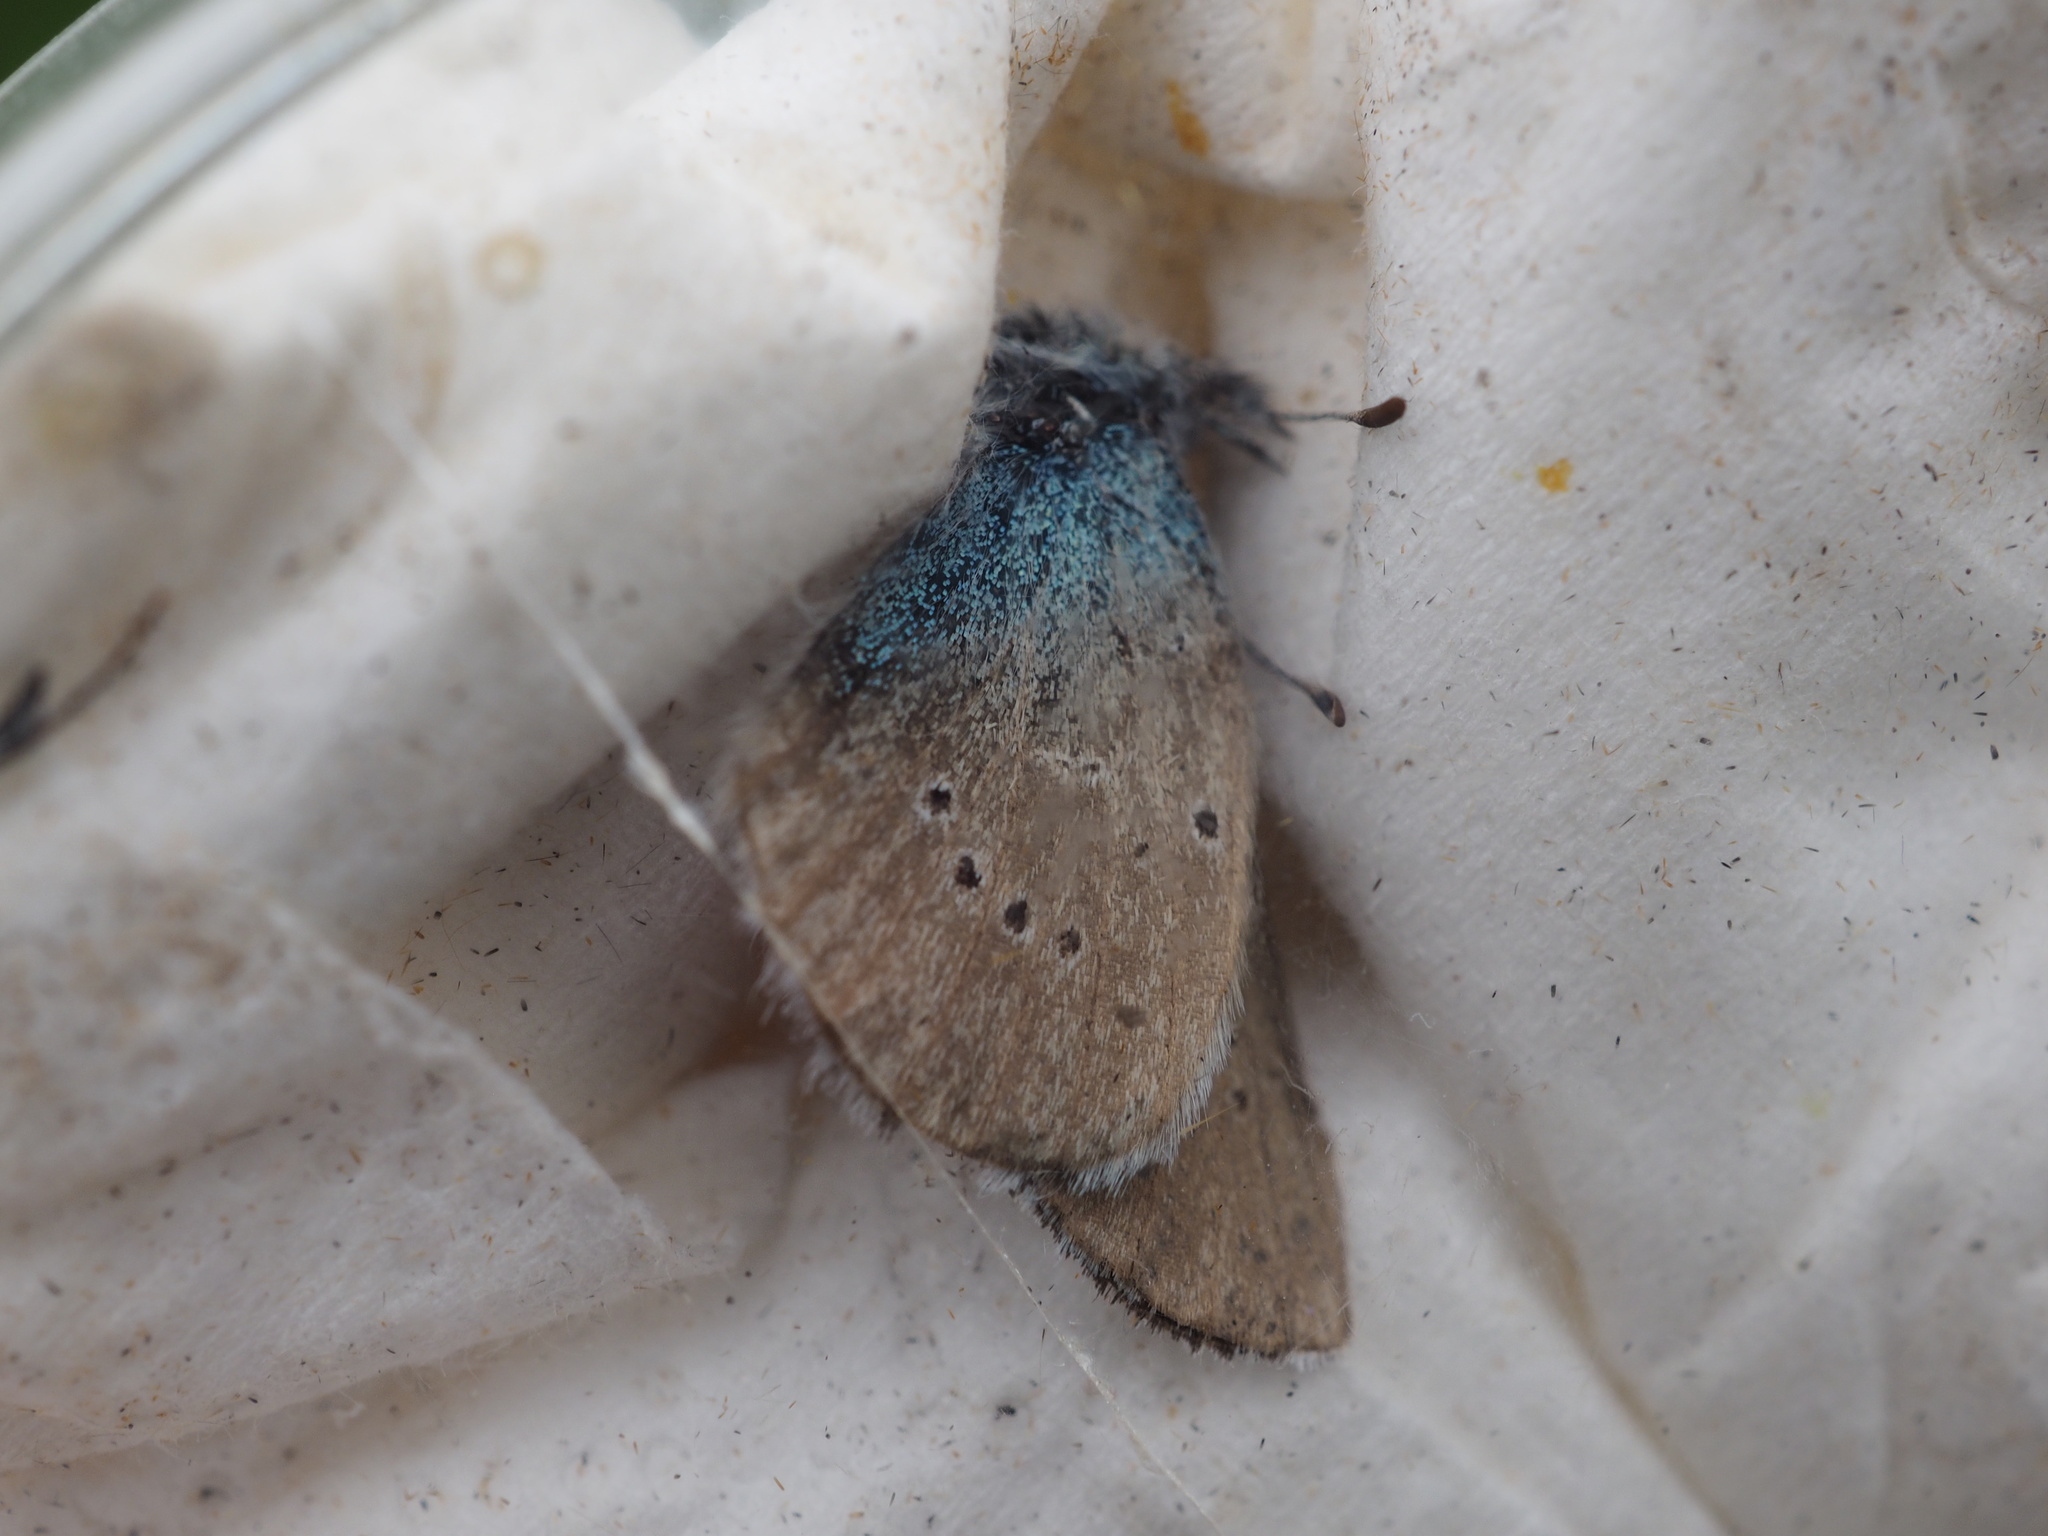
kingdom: Animalia
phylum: Arthropoda
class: Insecta
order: Lepidoptera
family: Lycaenidae
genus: Cyaniris
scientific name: Cyaniris semiargus
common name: Mazarine blue
